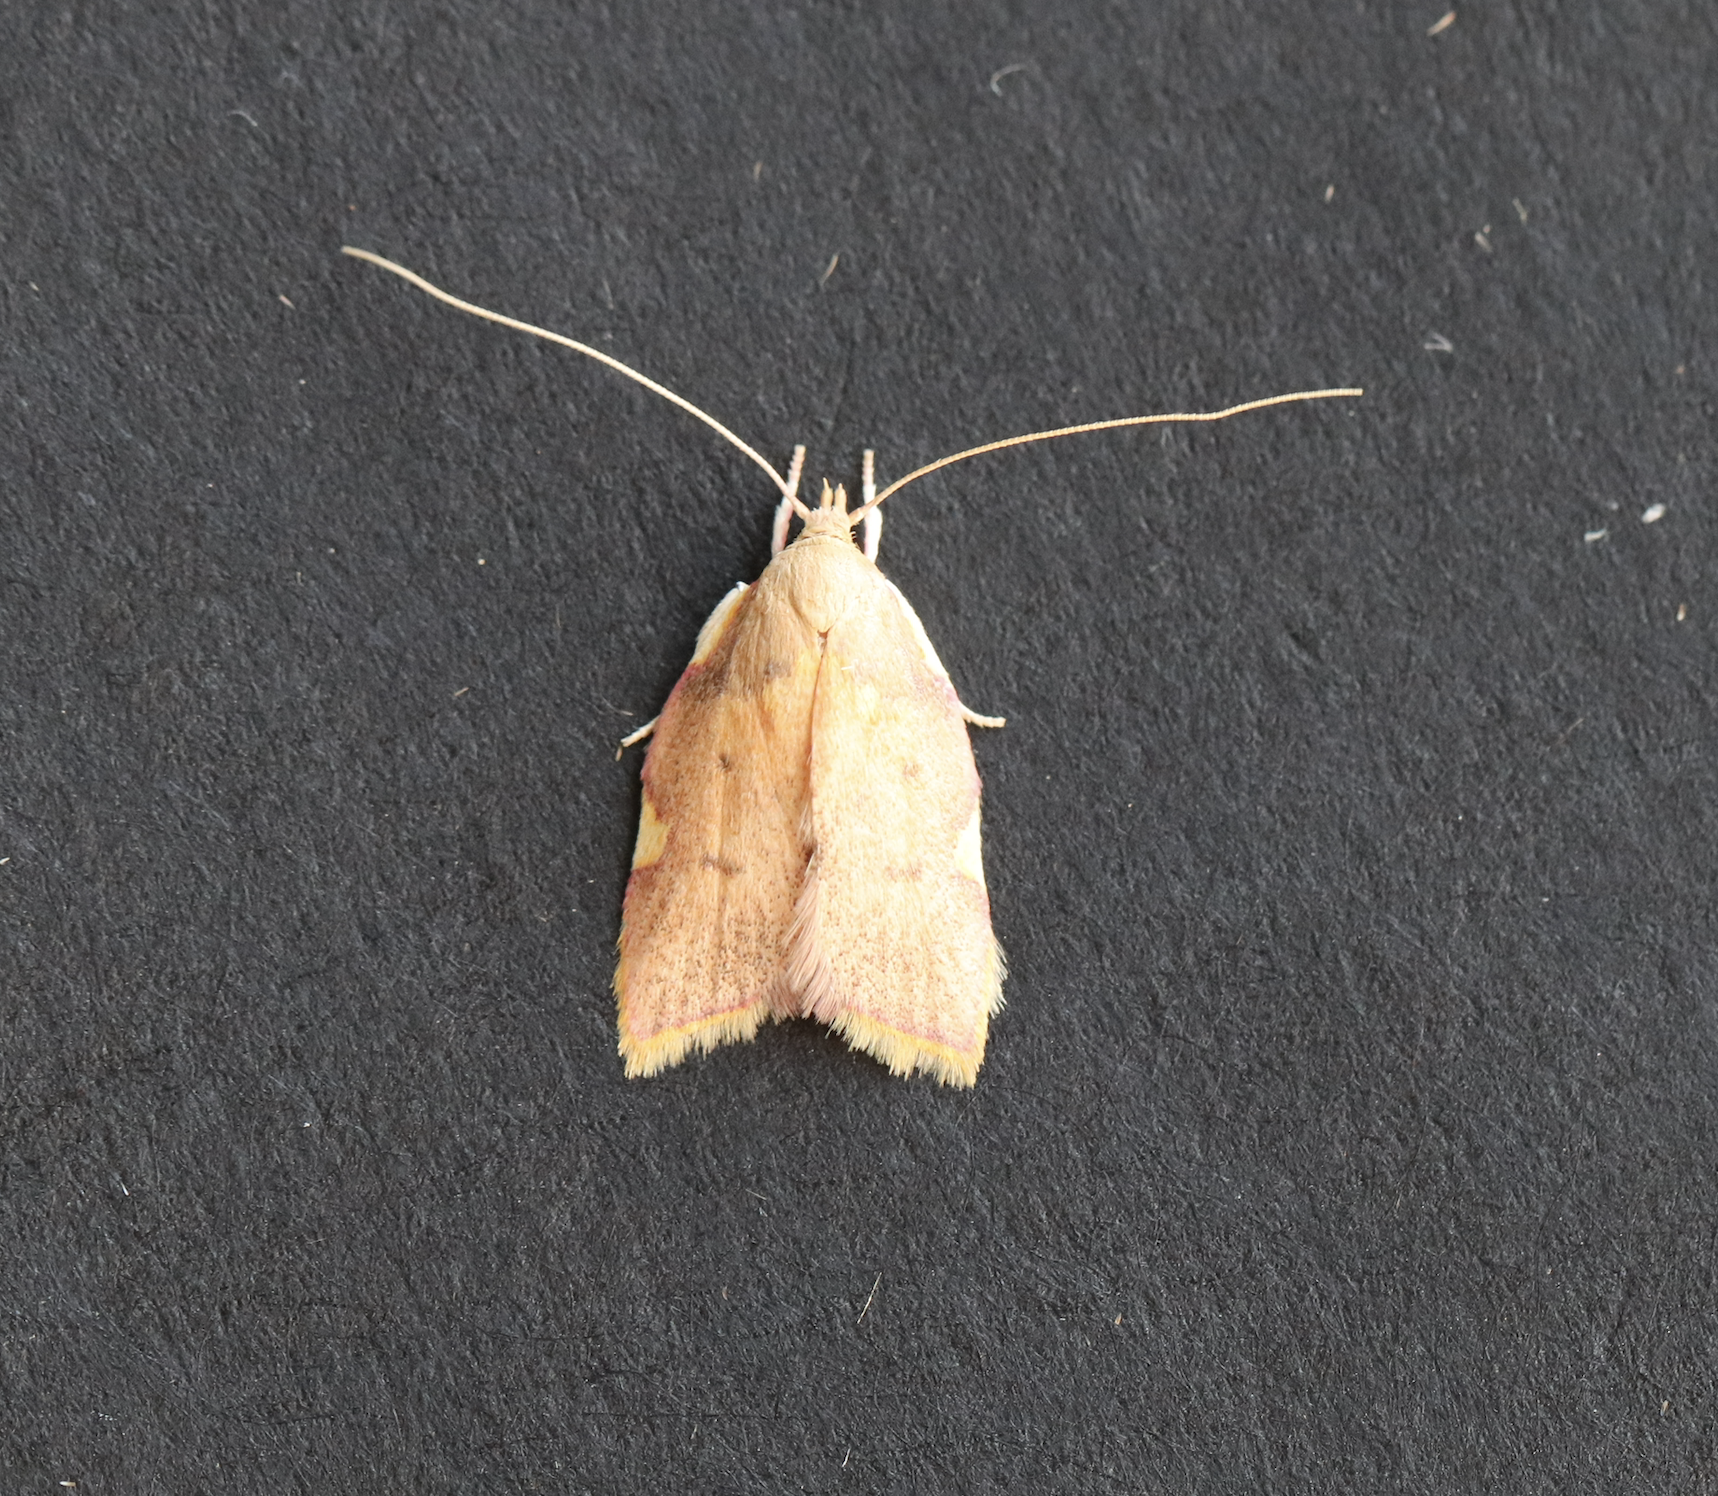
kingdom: Animalia
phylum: Arthropoda
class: Insecta
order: Lepidoptera
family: Peleopodidae
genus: Carcina
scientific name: Carcina quercana
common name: Moth
